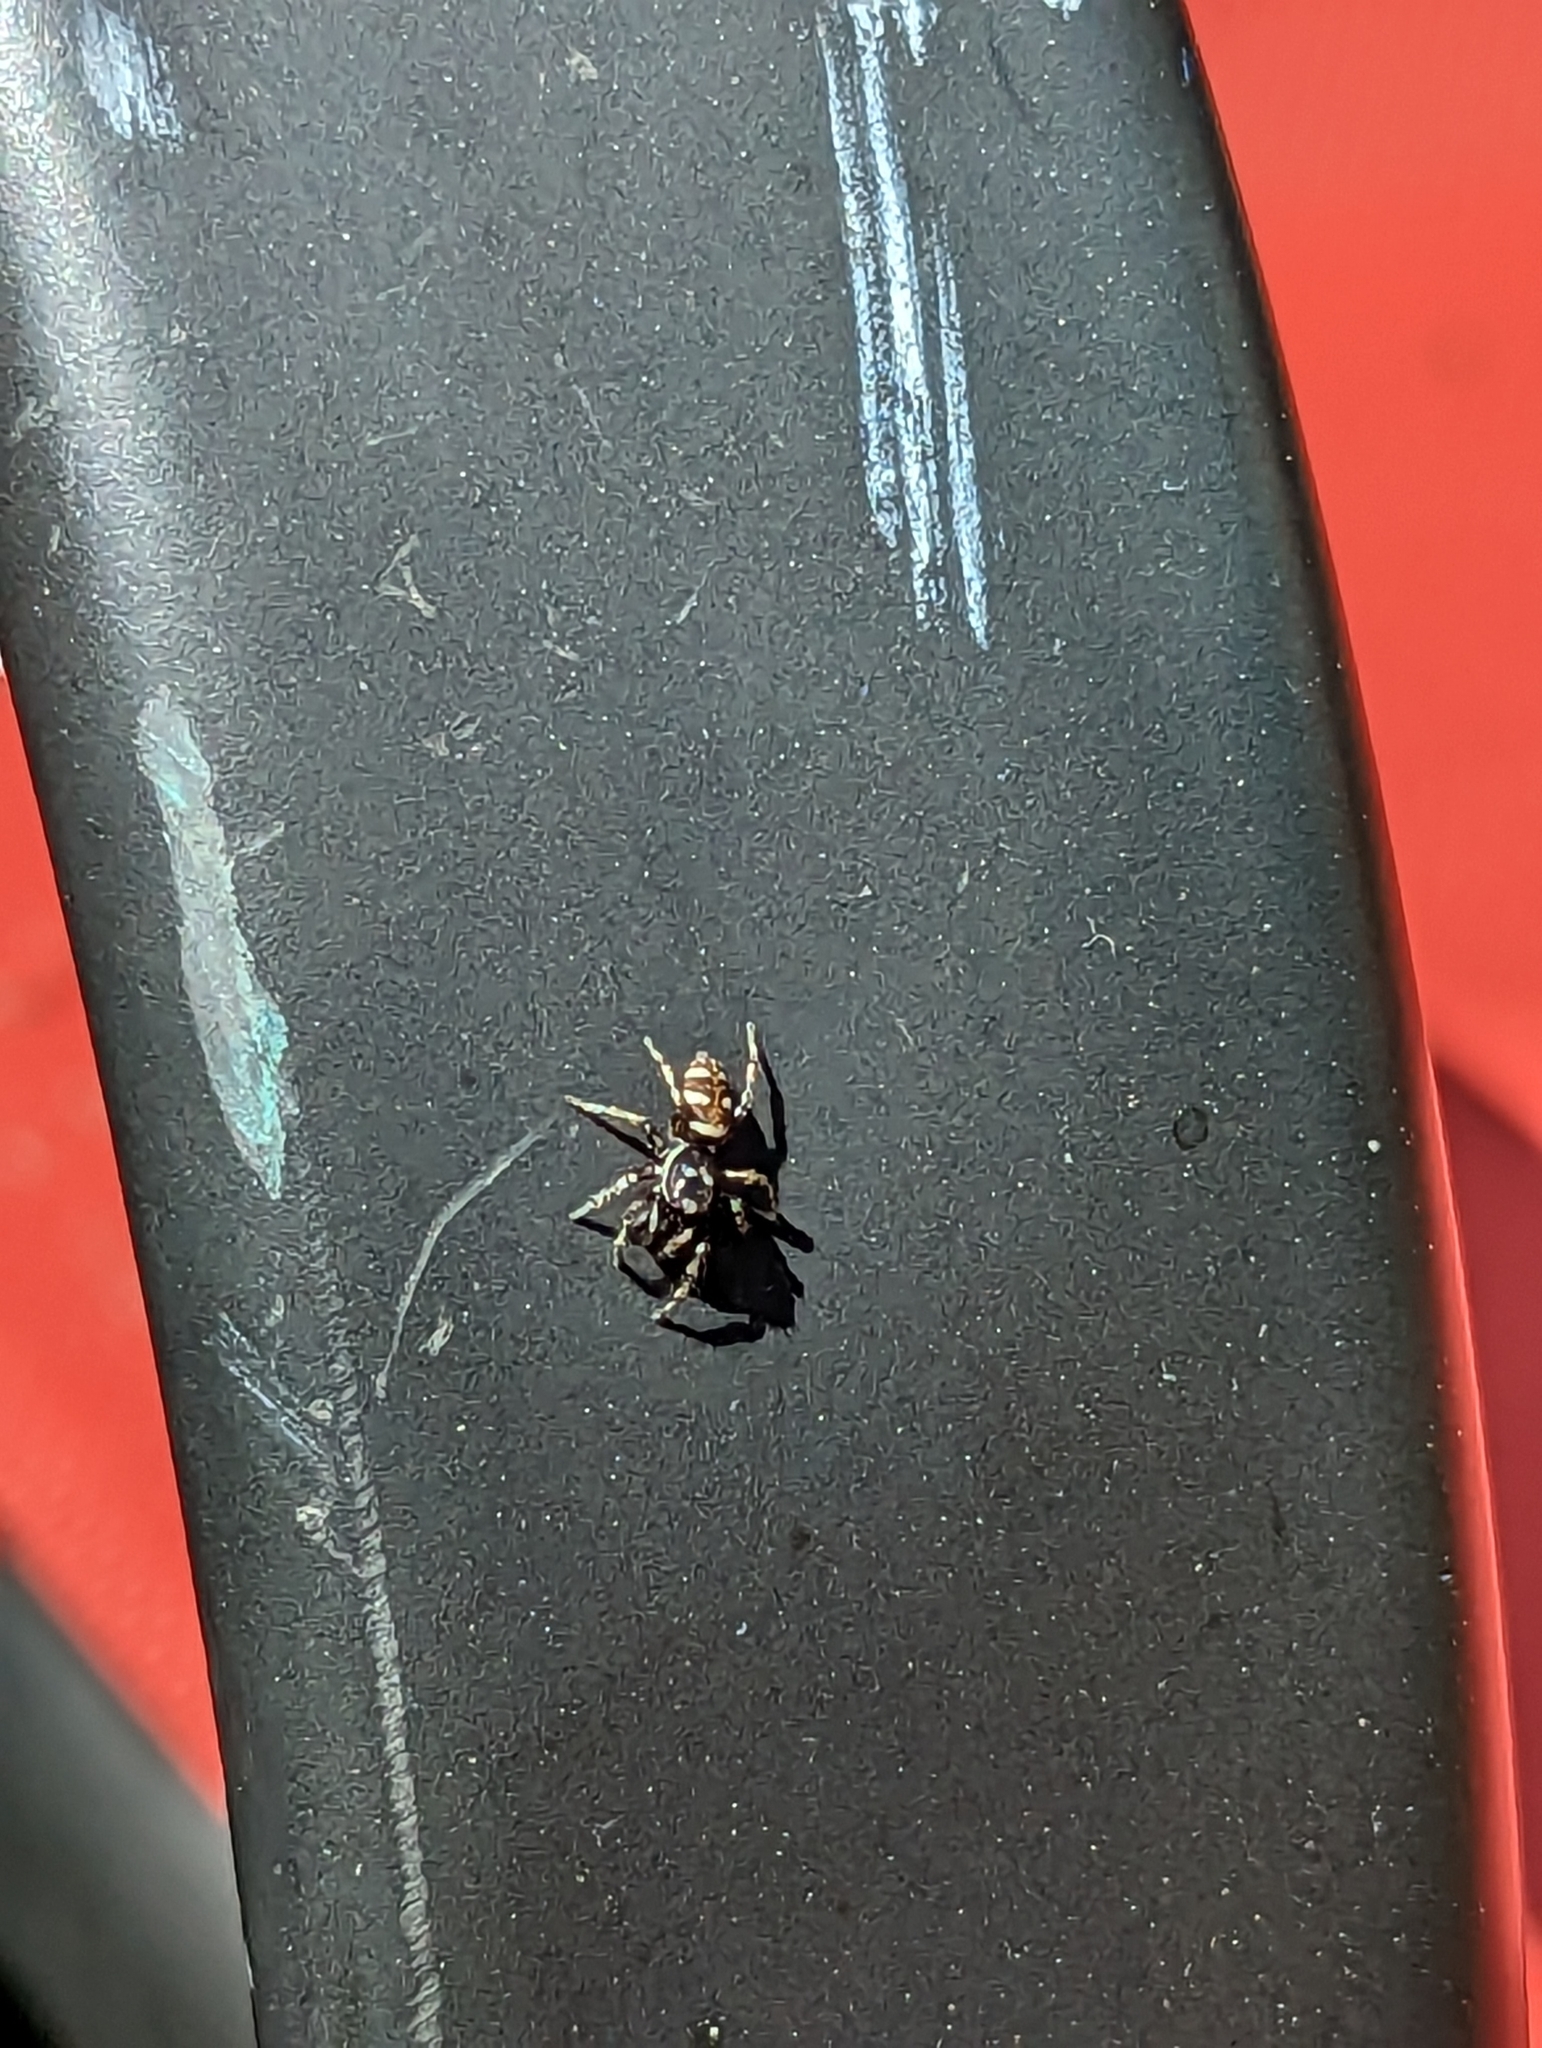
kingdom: Animalia
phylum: Arthropoda
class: Arachnida
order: Araneae
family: Salticidae
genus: Salticus
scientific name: Salticus scenicus
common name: Zebra jumper
